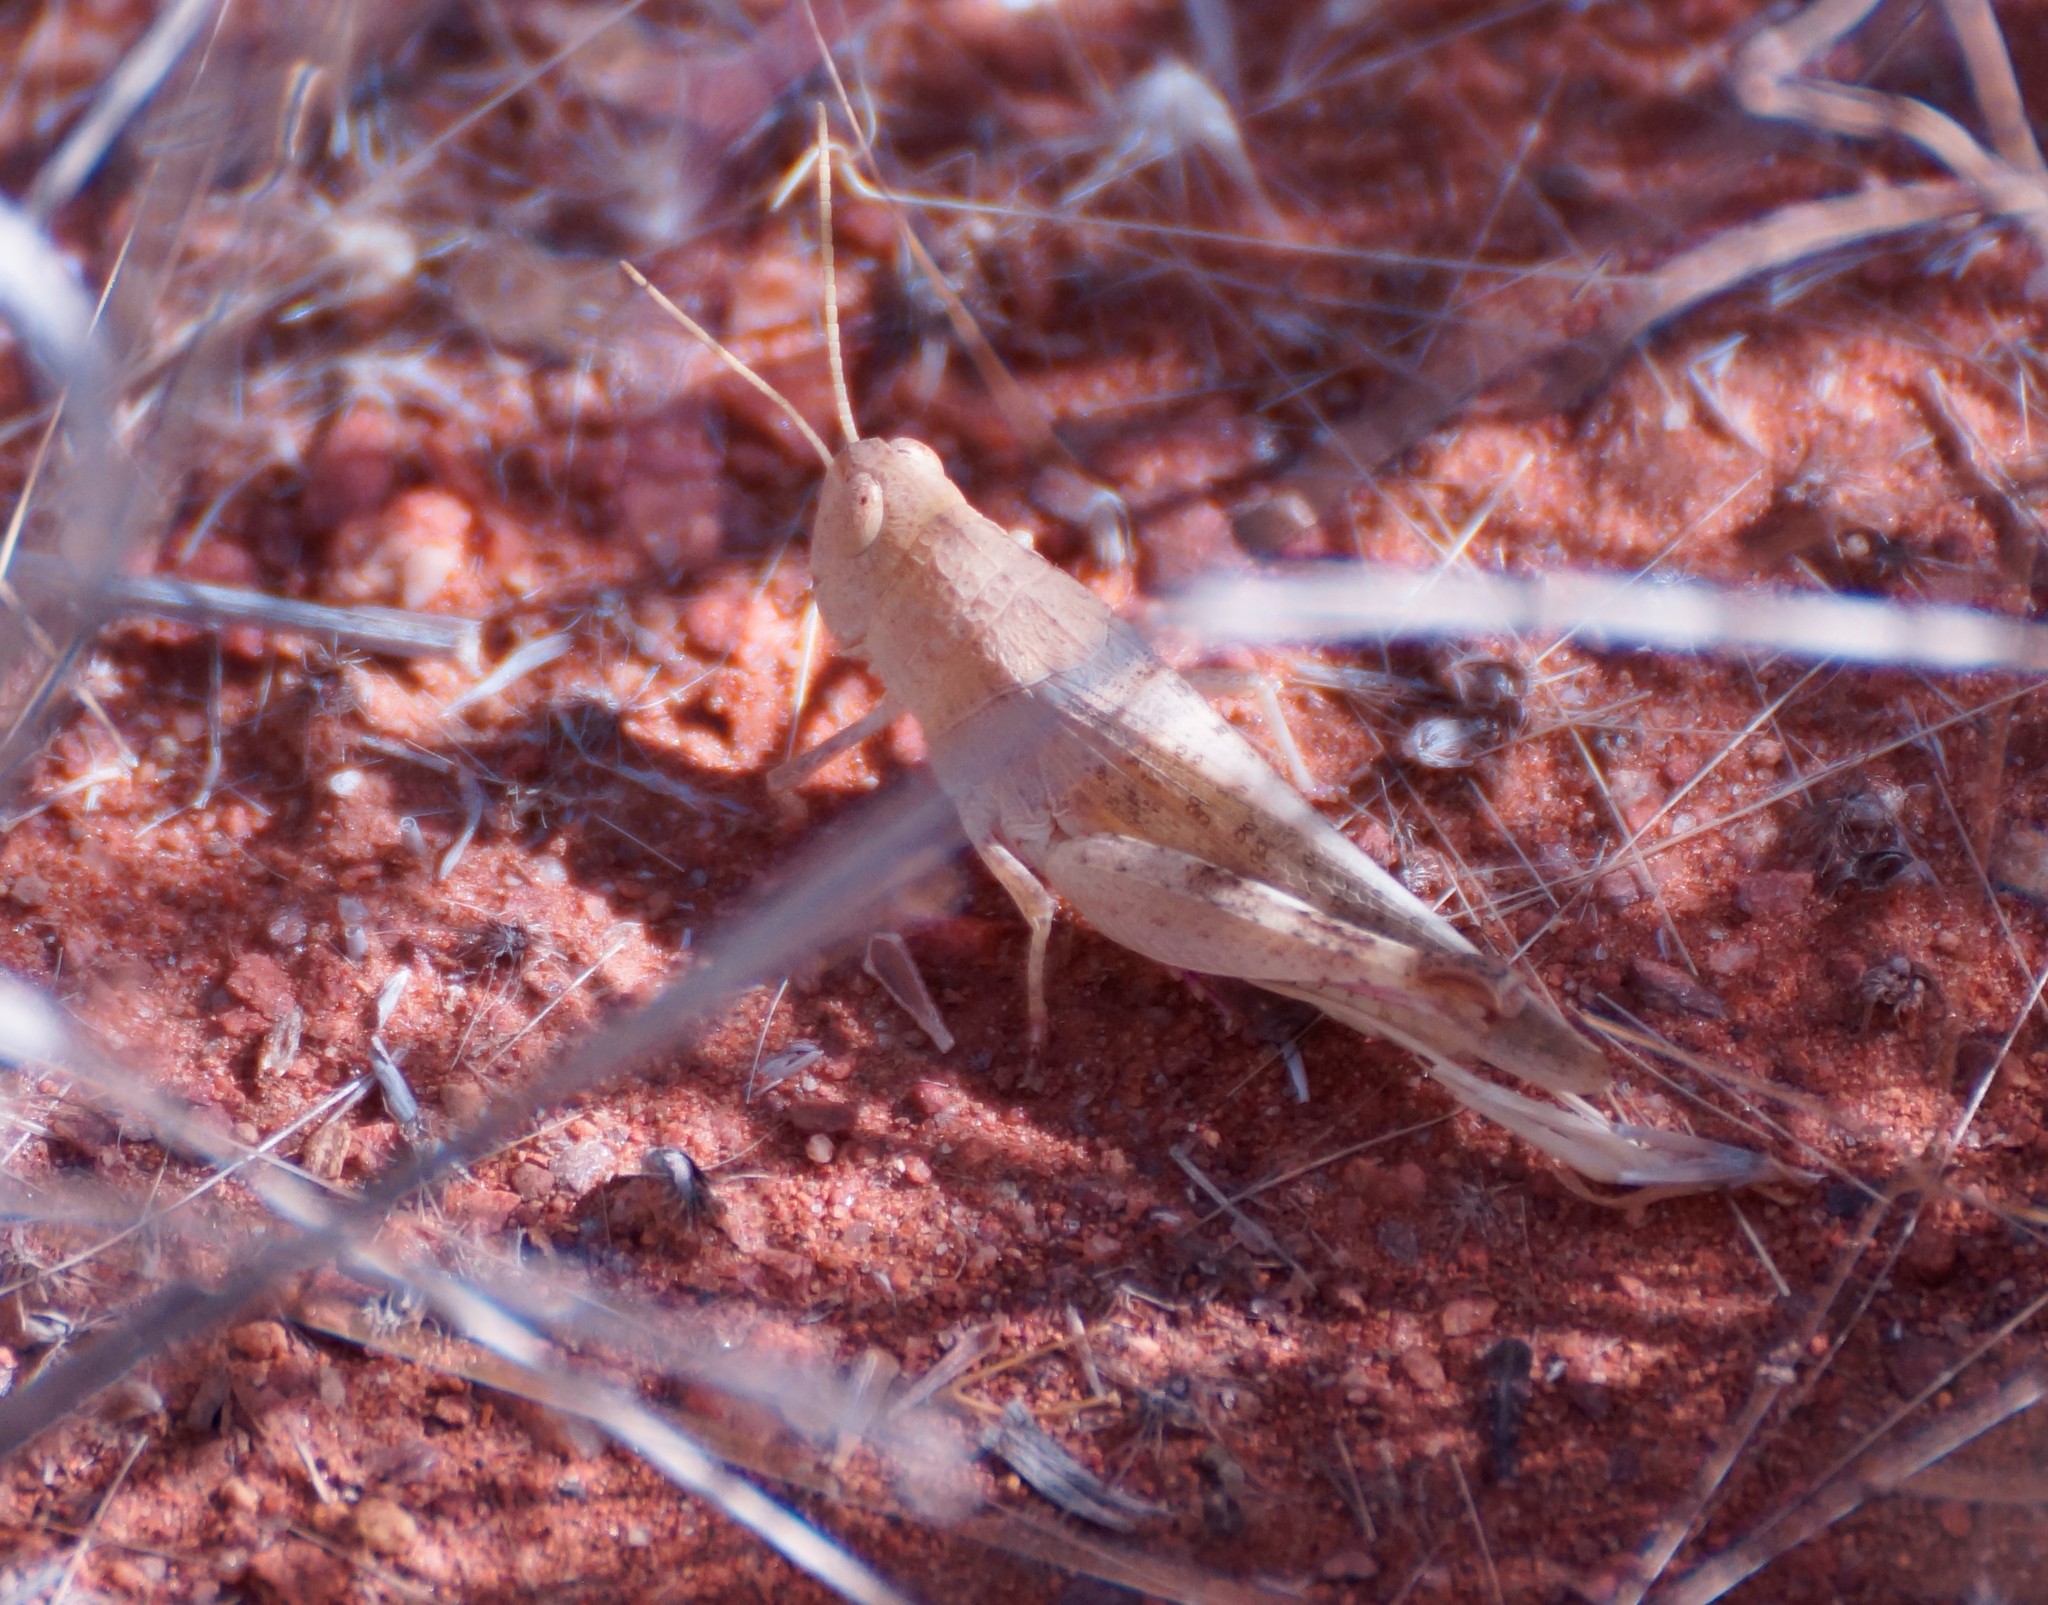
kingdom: Animalia
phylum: Arthropoda
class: Insecta
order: Orthoptera
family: Acrididae
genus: Goniaeoidea
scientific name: Goniaeoidea
